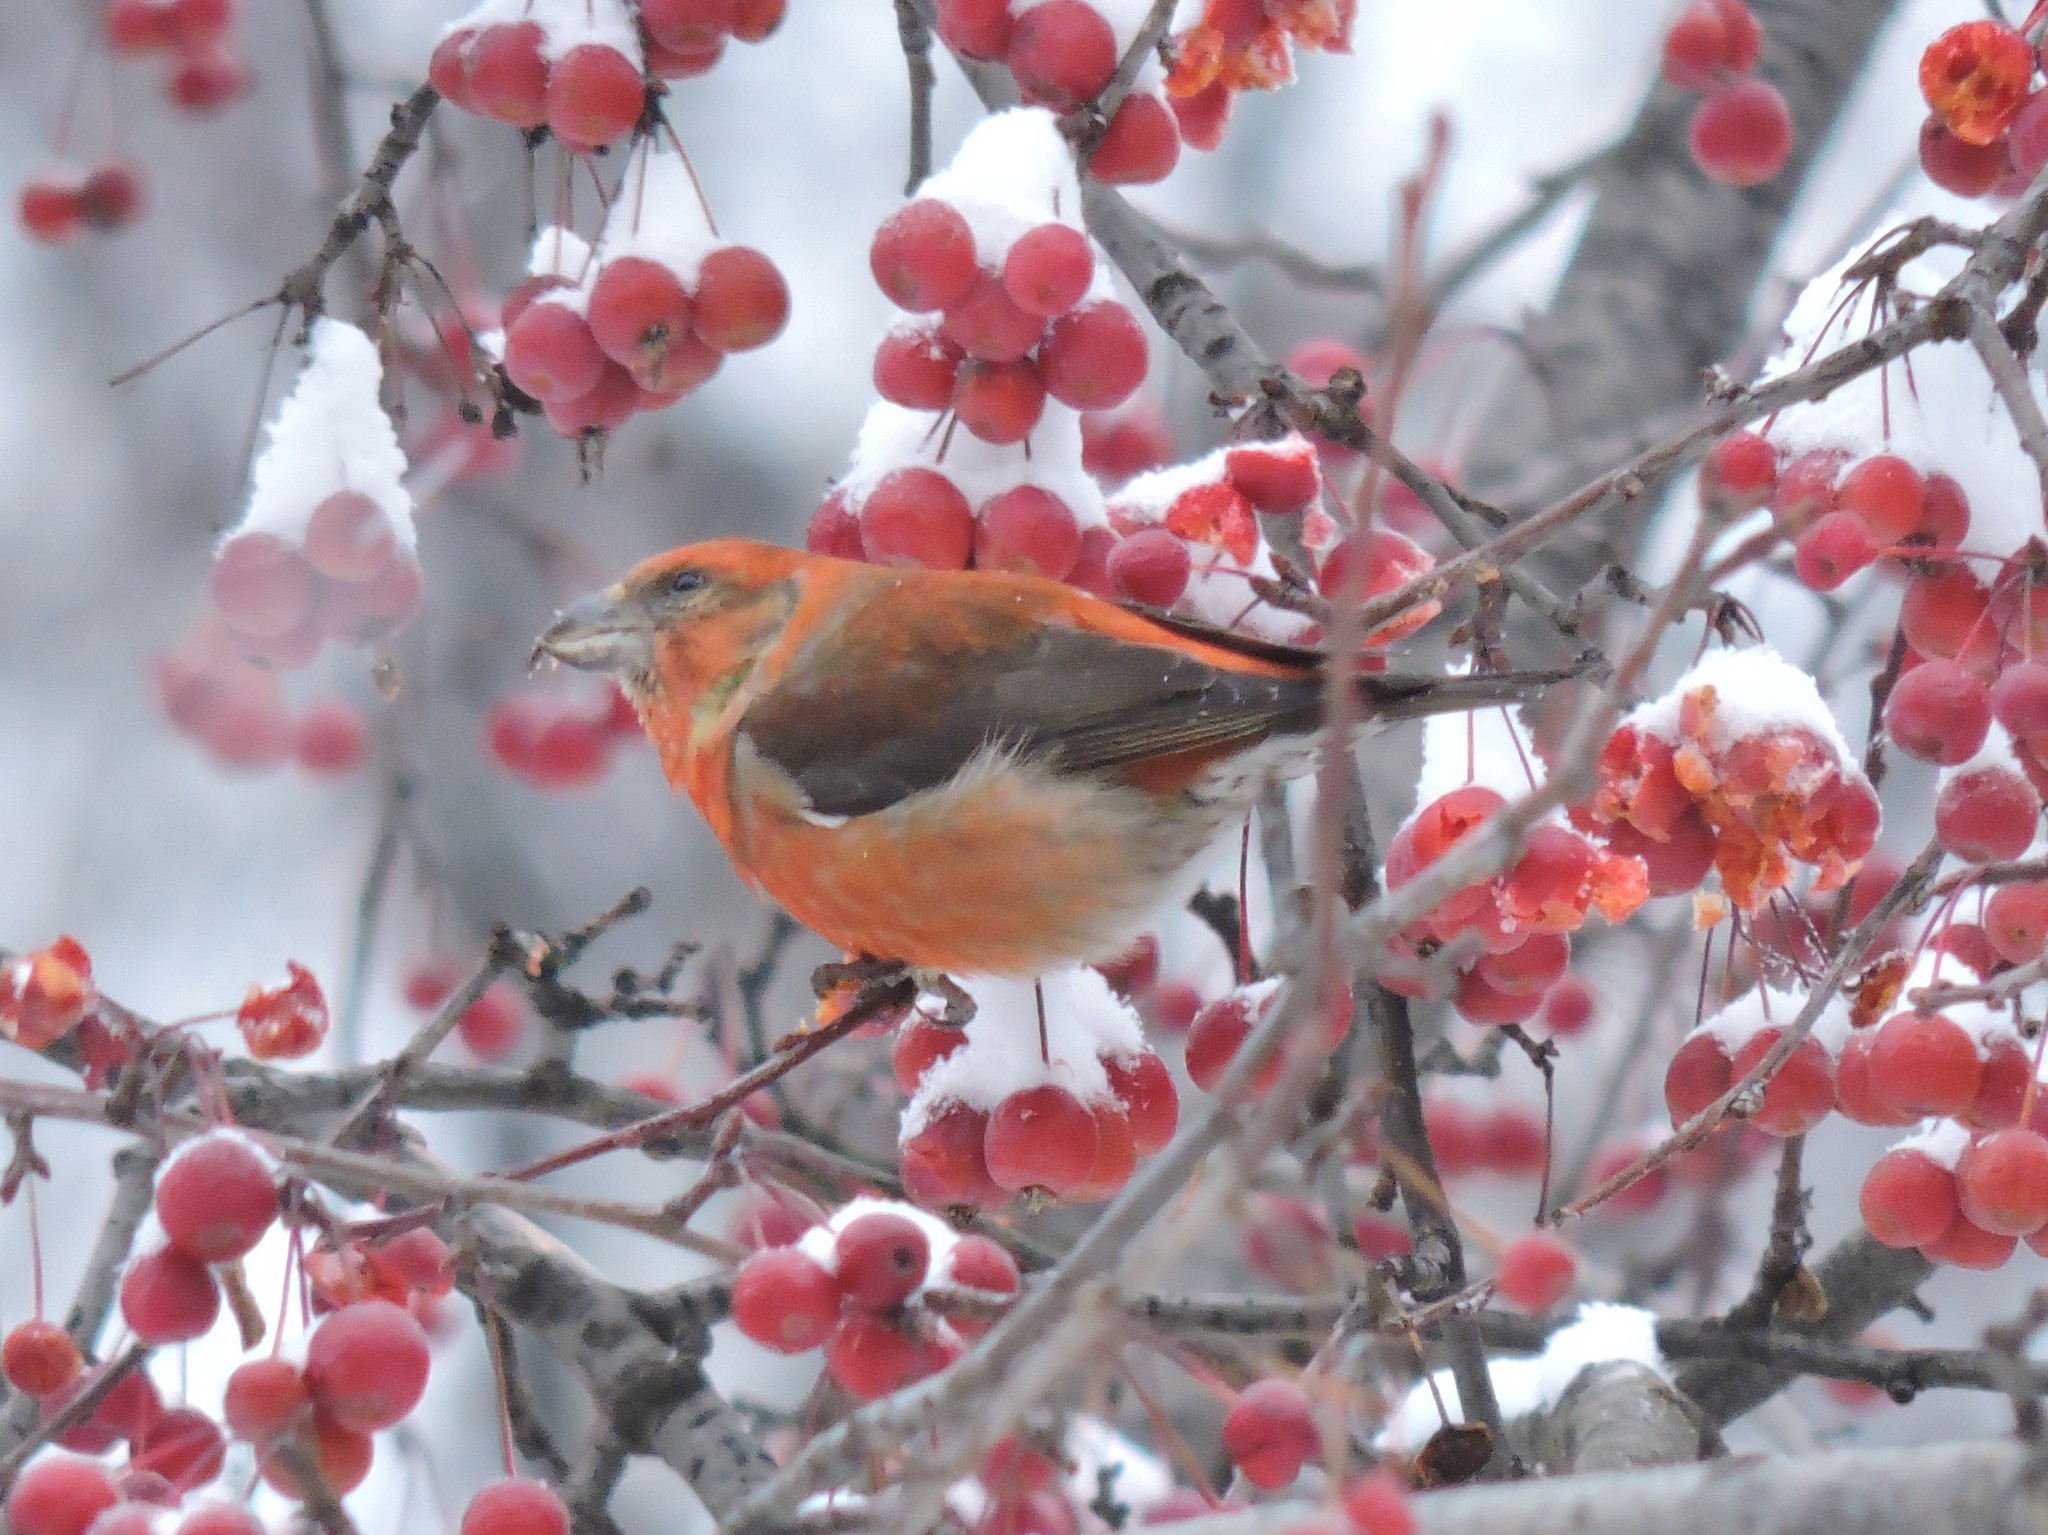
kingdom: Animalia
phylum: Chordata
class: Aves
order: Passeriformes
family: Fringillidae
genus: Loxia
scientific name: Loxia curvirostra
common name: Red crossbill
